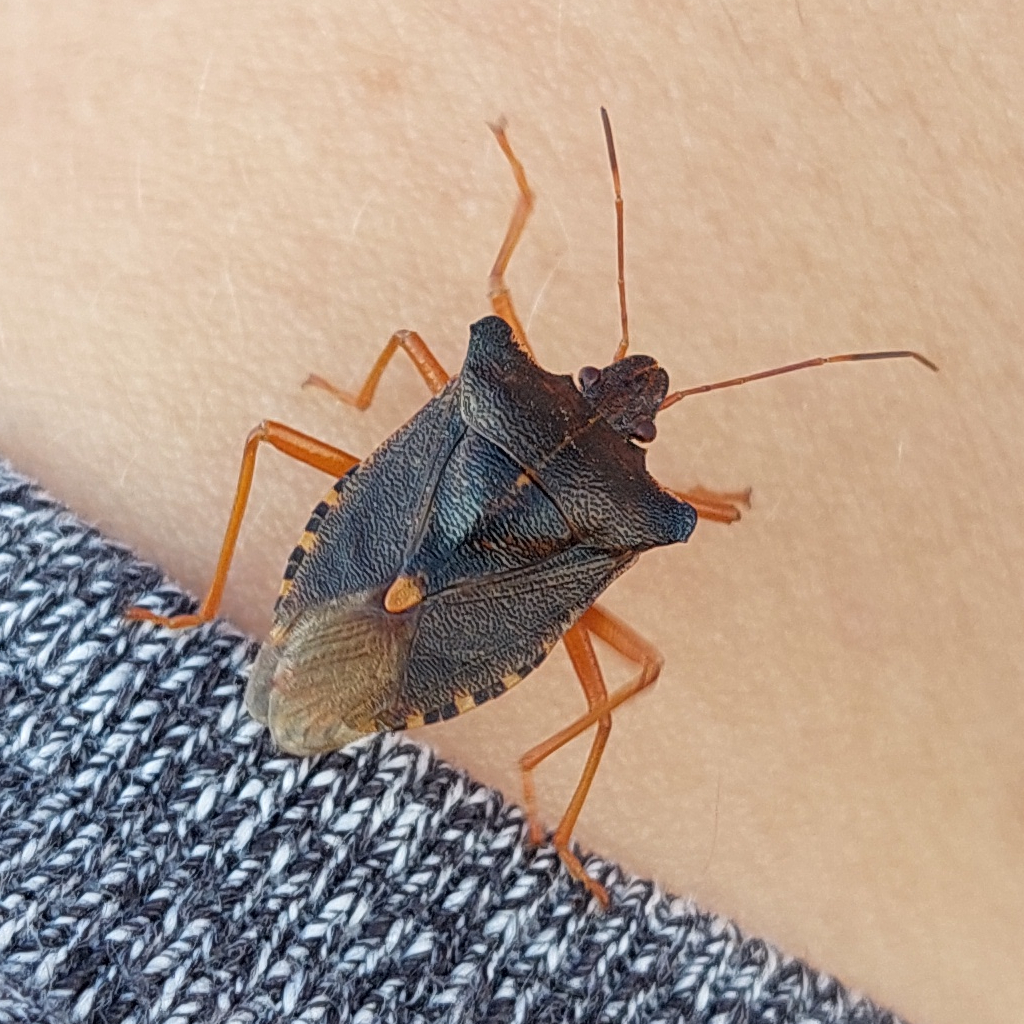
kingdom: Animalia
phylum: Arthropoda
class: Insecta
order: Hemiptera
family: Pentatomidae
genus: Pentatoma
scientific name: Pentatoma rufipes
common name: Forest bug
